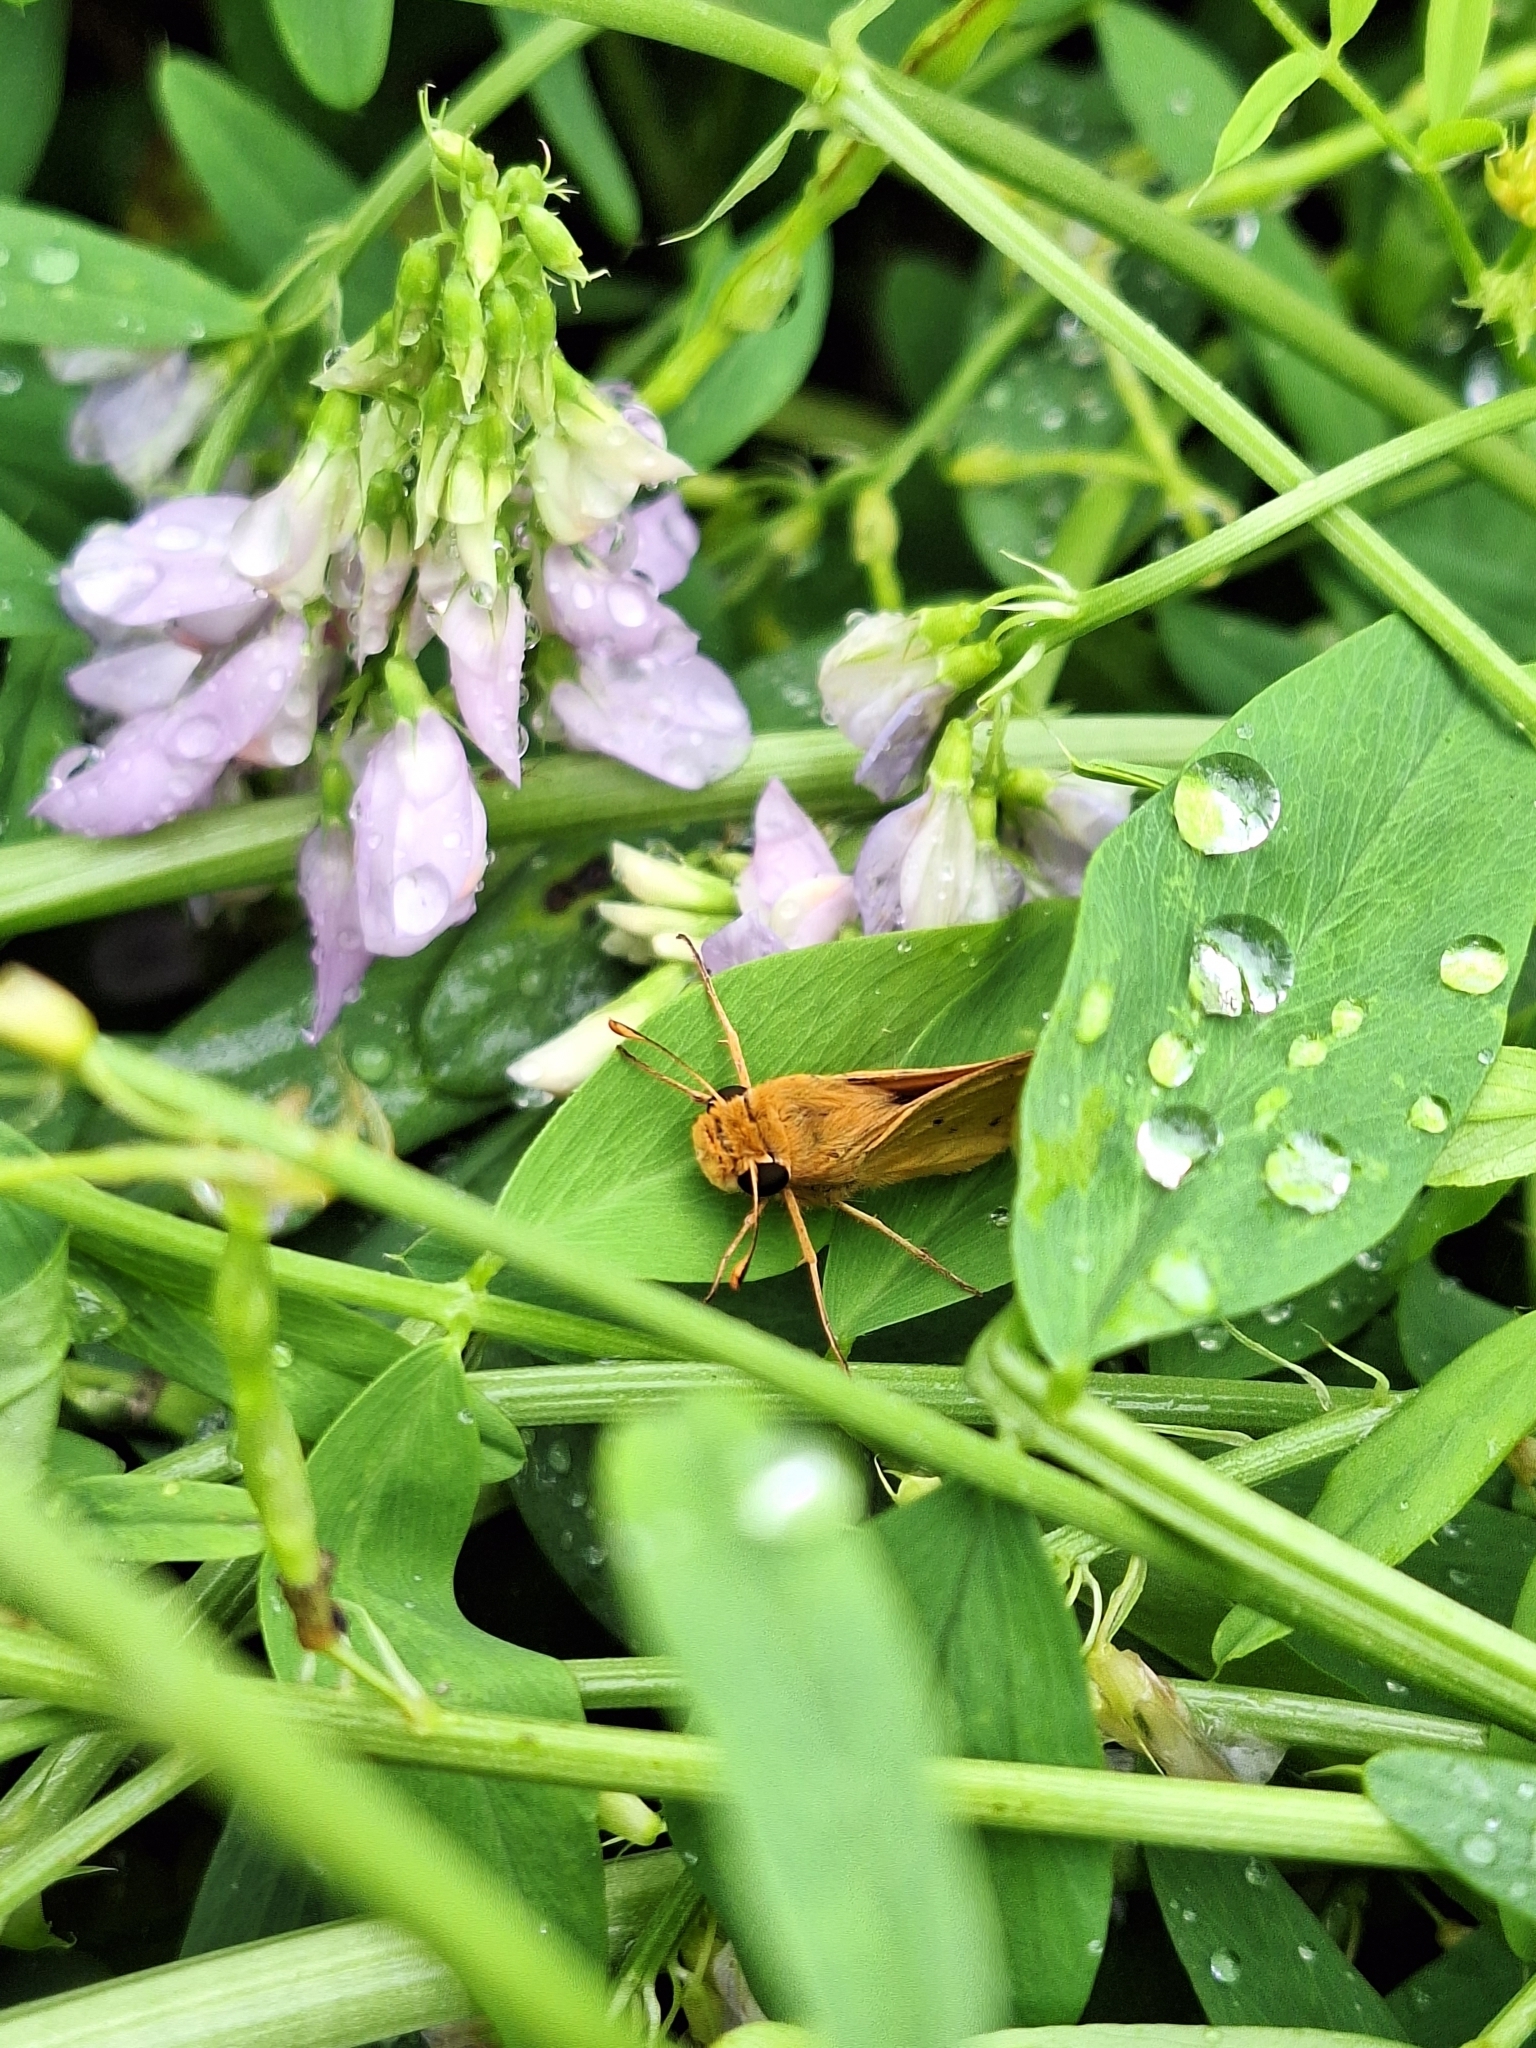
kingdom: Animalia
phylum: Arthropoda
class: Insecta
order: Lepidoptera
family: Hesperiidae
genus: Hylephila
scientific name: Hylephila phyleus
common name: Fiery skipper
